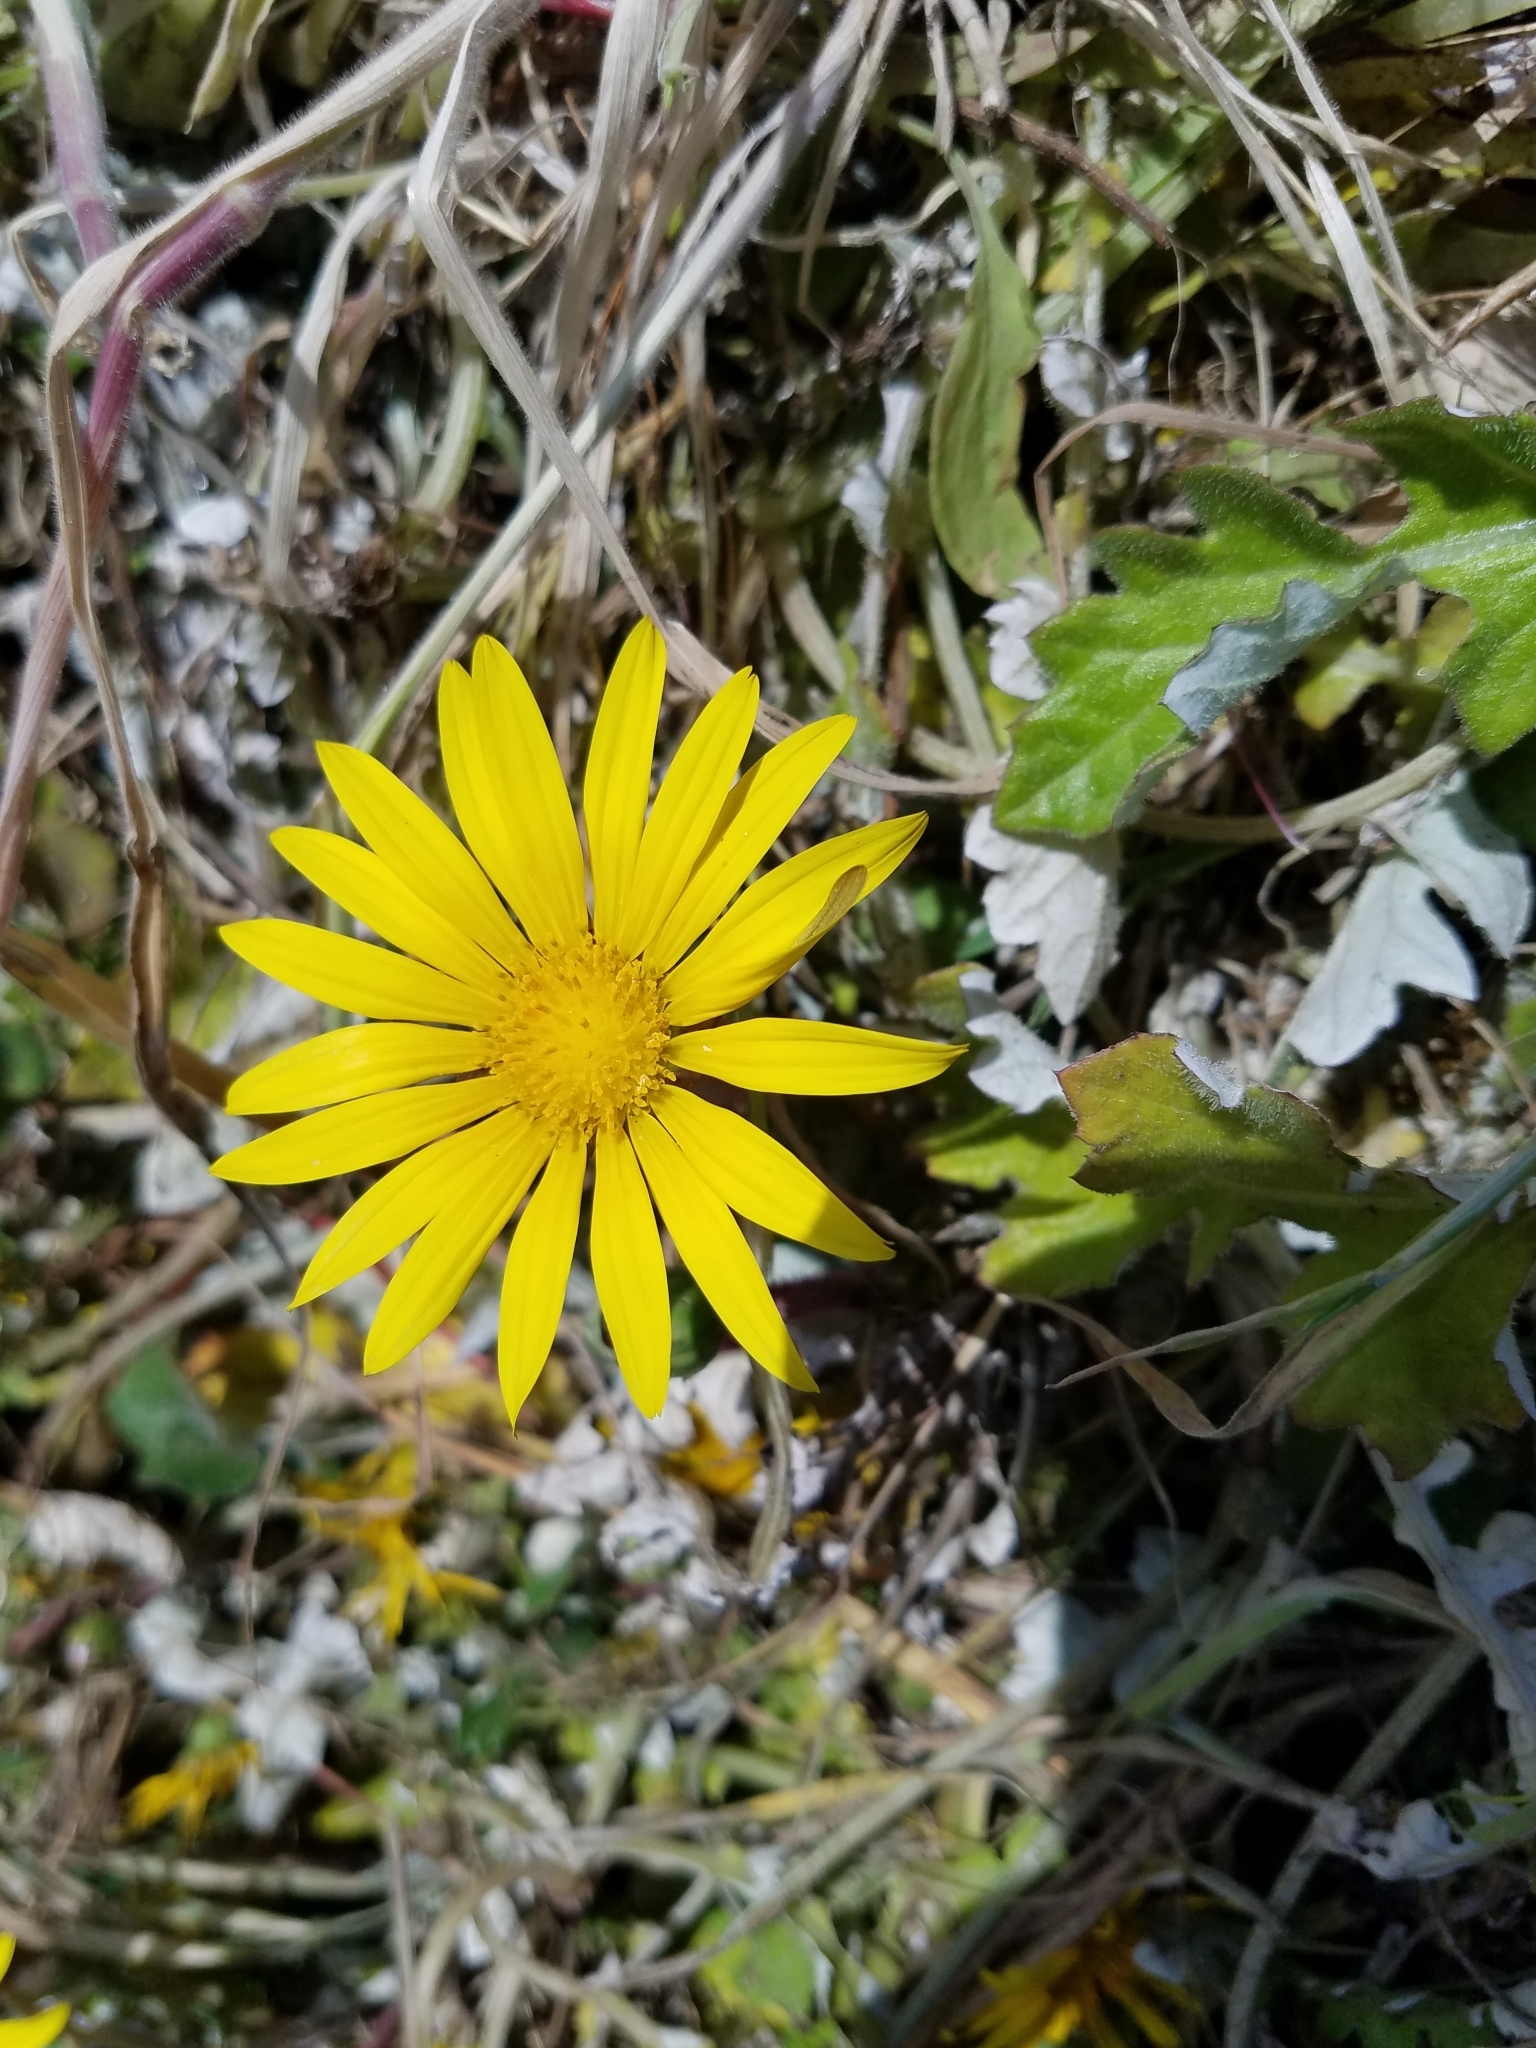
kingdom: Plantae
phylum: Tracheophyta
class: Magnoliopsida
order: Asterales
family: Asteraceae
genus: Arctotheca
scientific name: Arctotheca prostrata
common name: Capeweed
